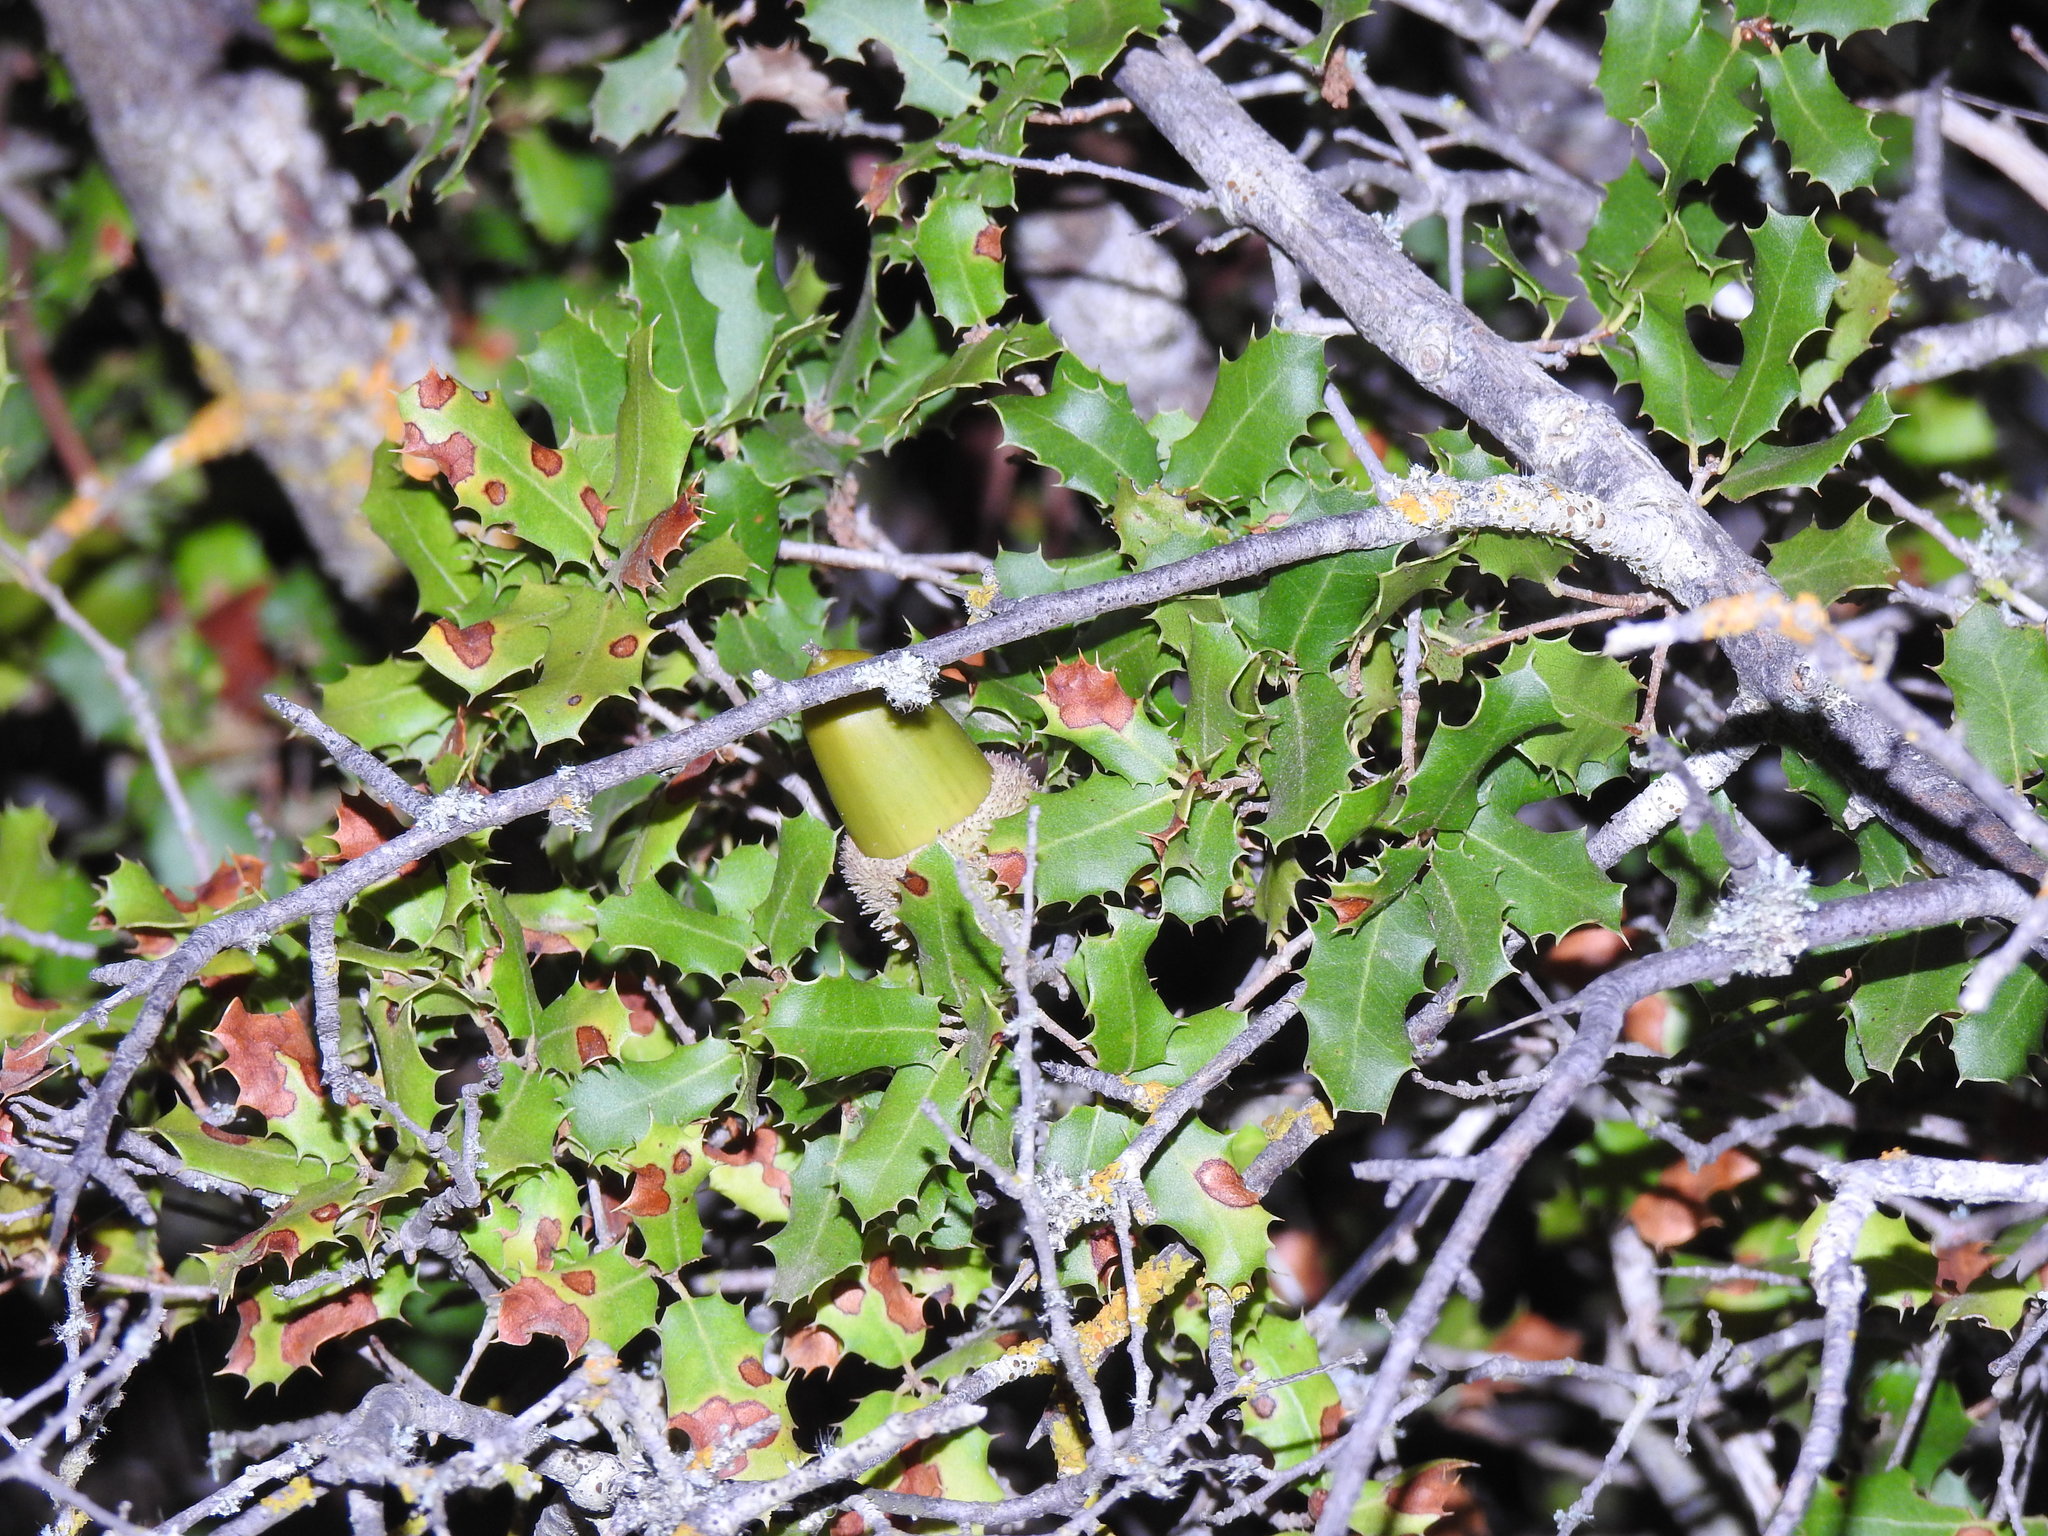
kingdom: Plantae
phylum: Tracheophyta
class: Magnoliopsida
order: Fagales
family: Fagaceae
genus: Quercus
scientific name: Quercus coccifera
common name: Kermes oak
